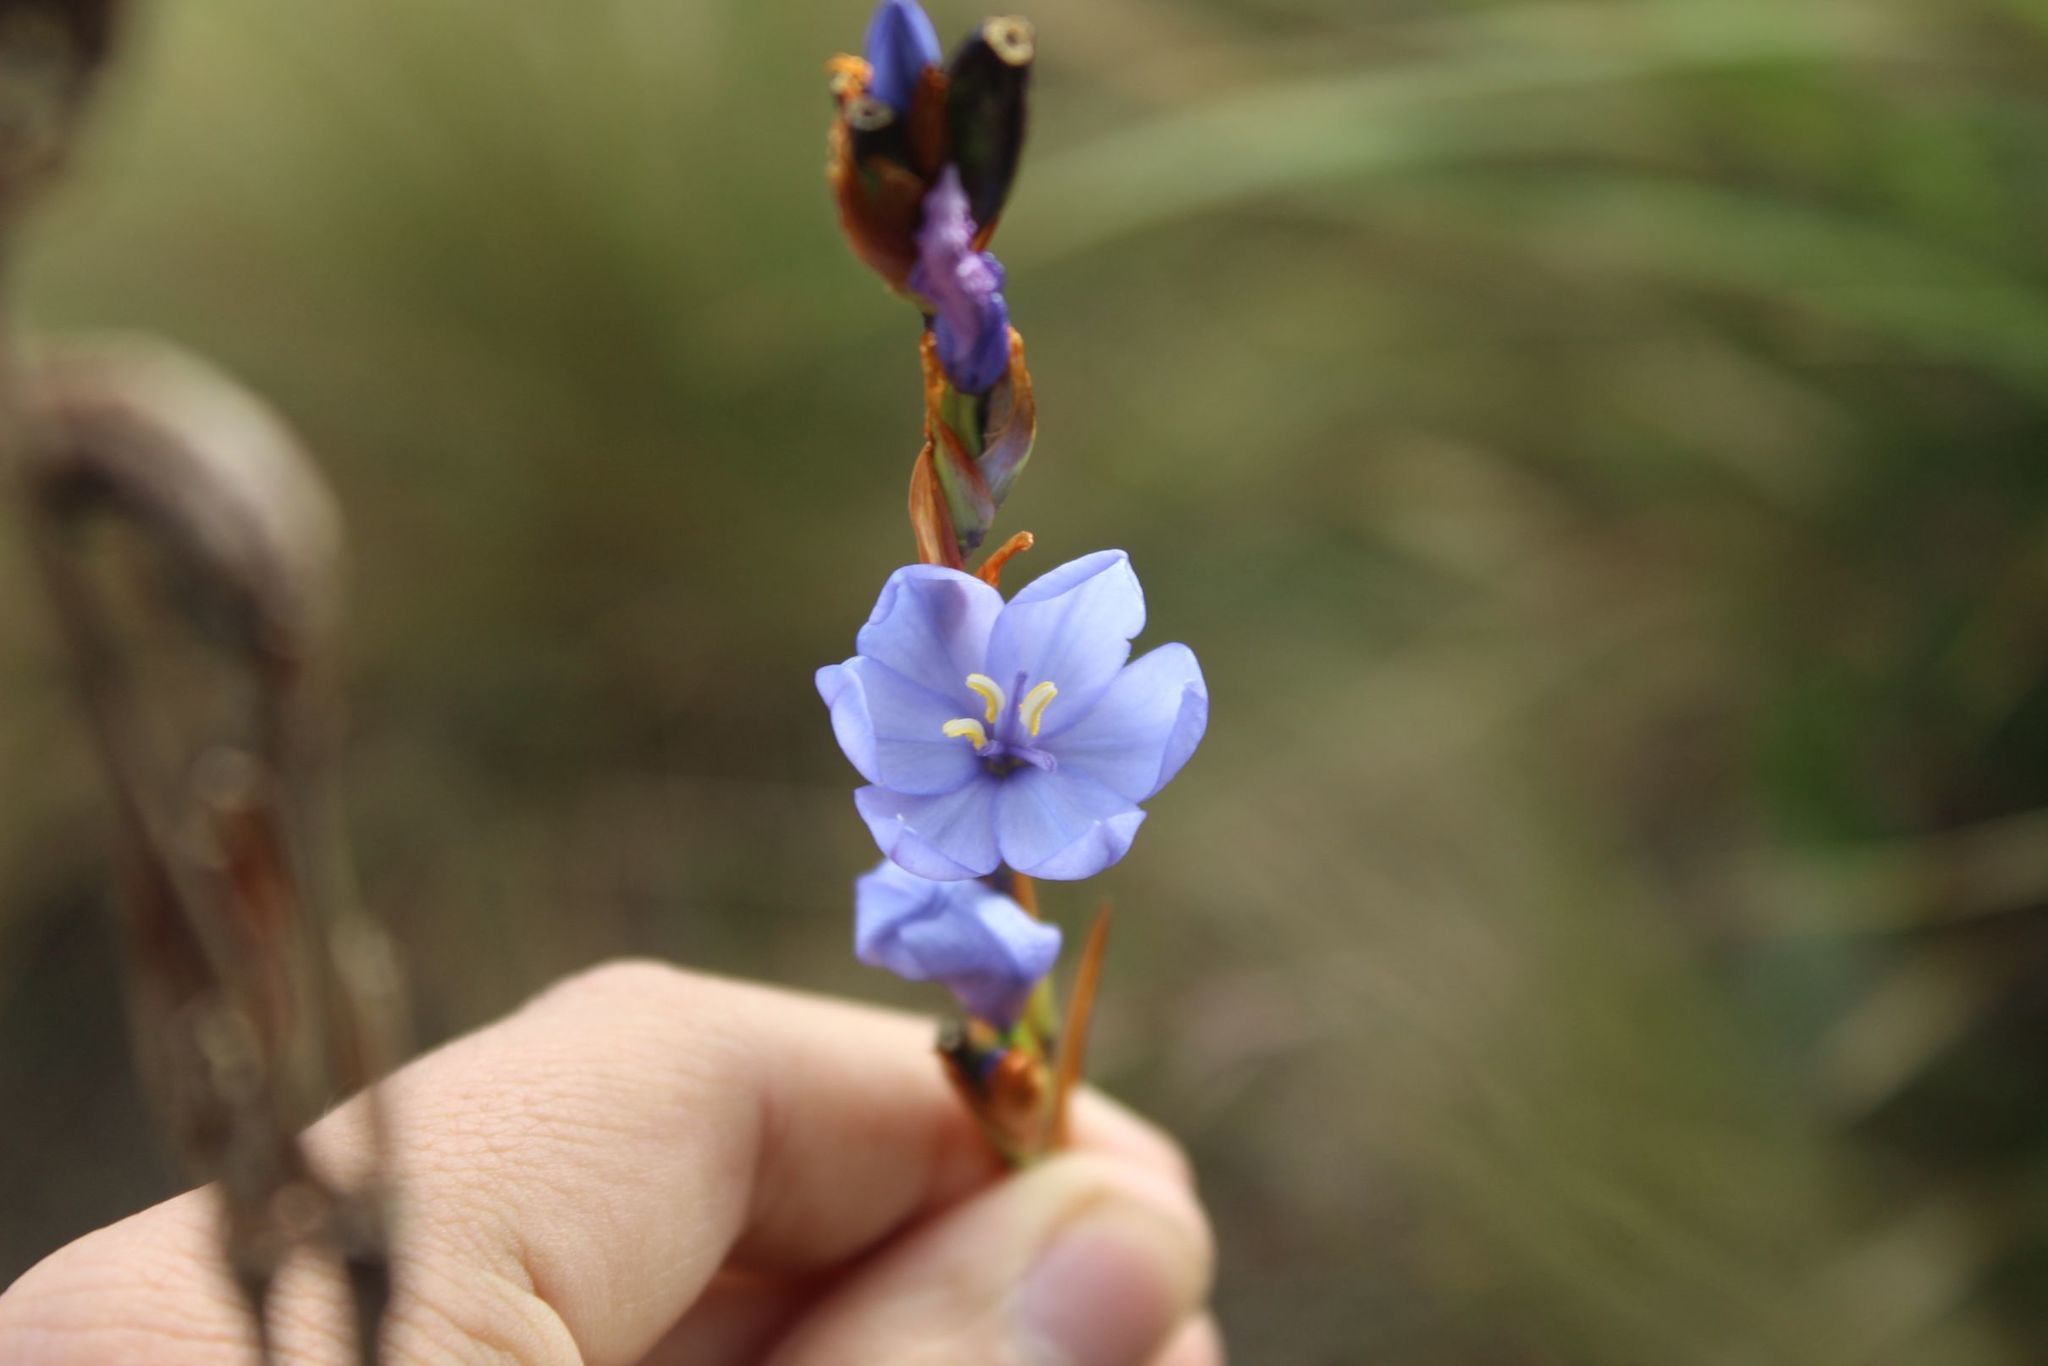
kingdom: Plantae
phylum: Tracheophyta
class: Liliopsida
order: Asparagales
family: Iridaceae
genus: Orthrosanthus
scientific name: Orthrosanthus chimboracensis
